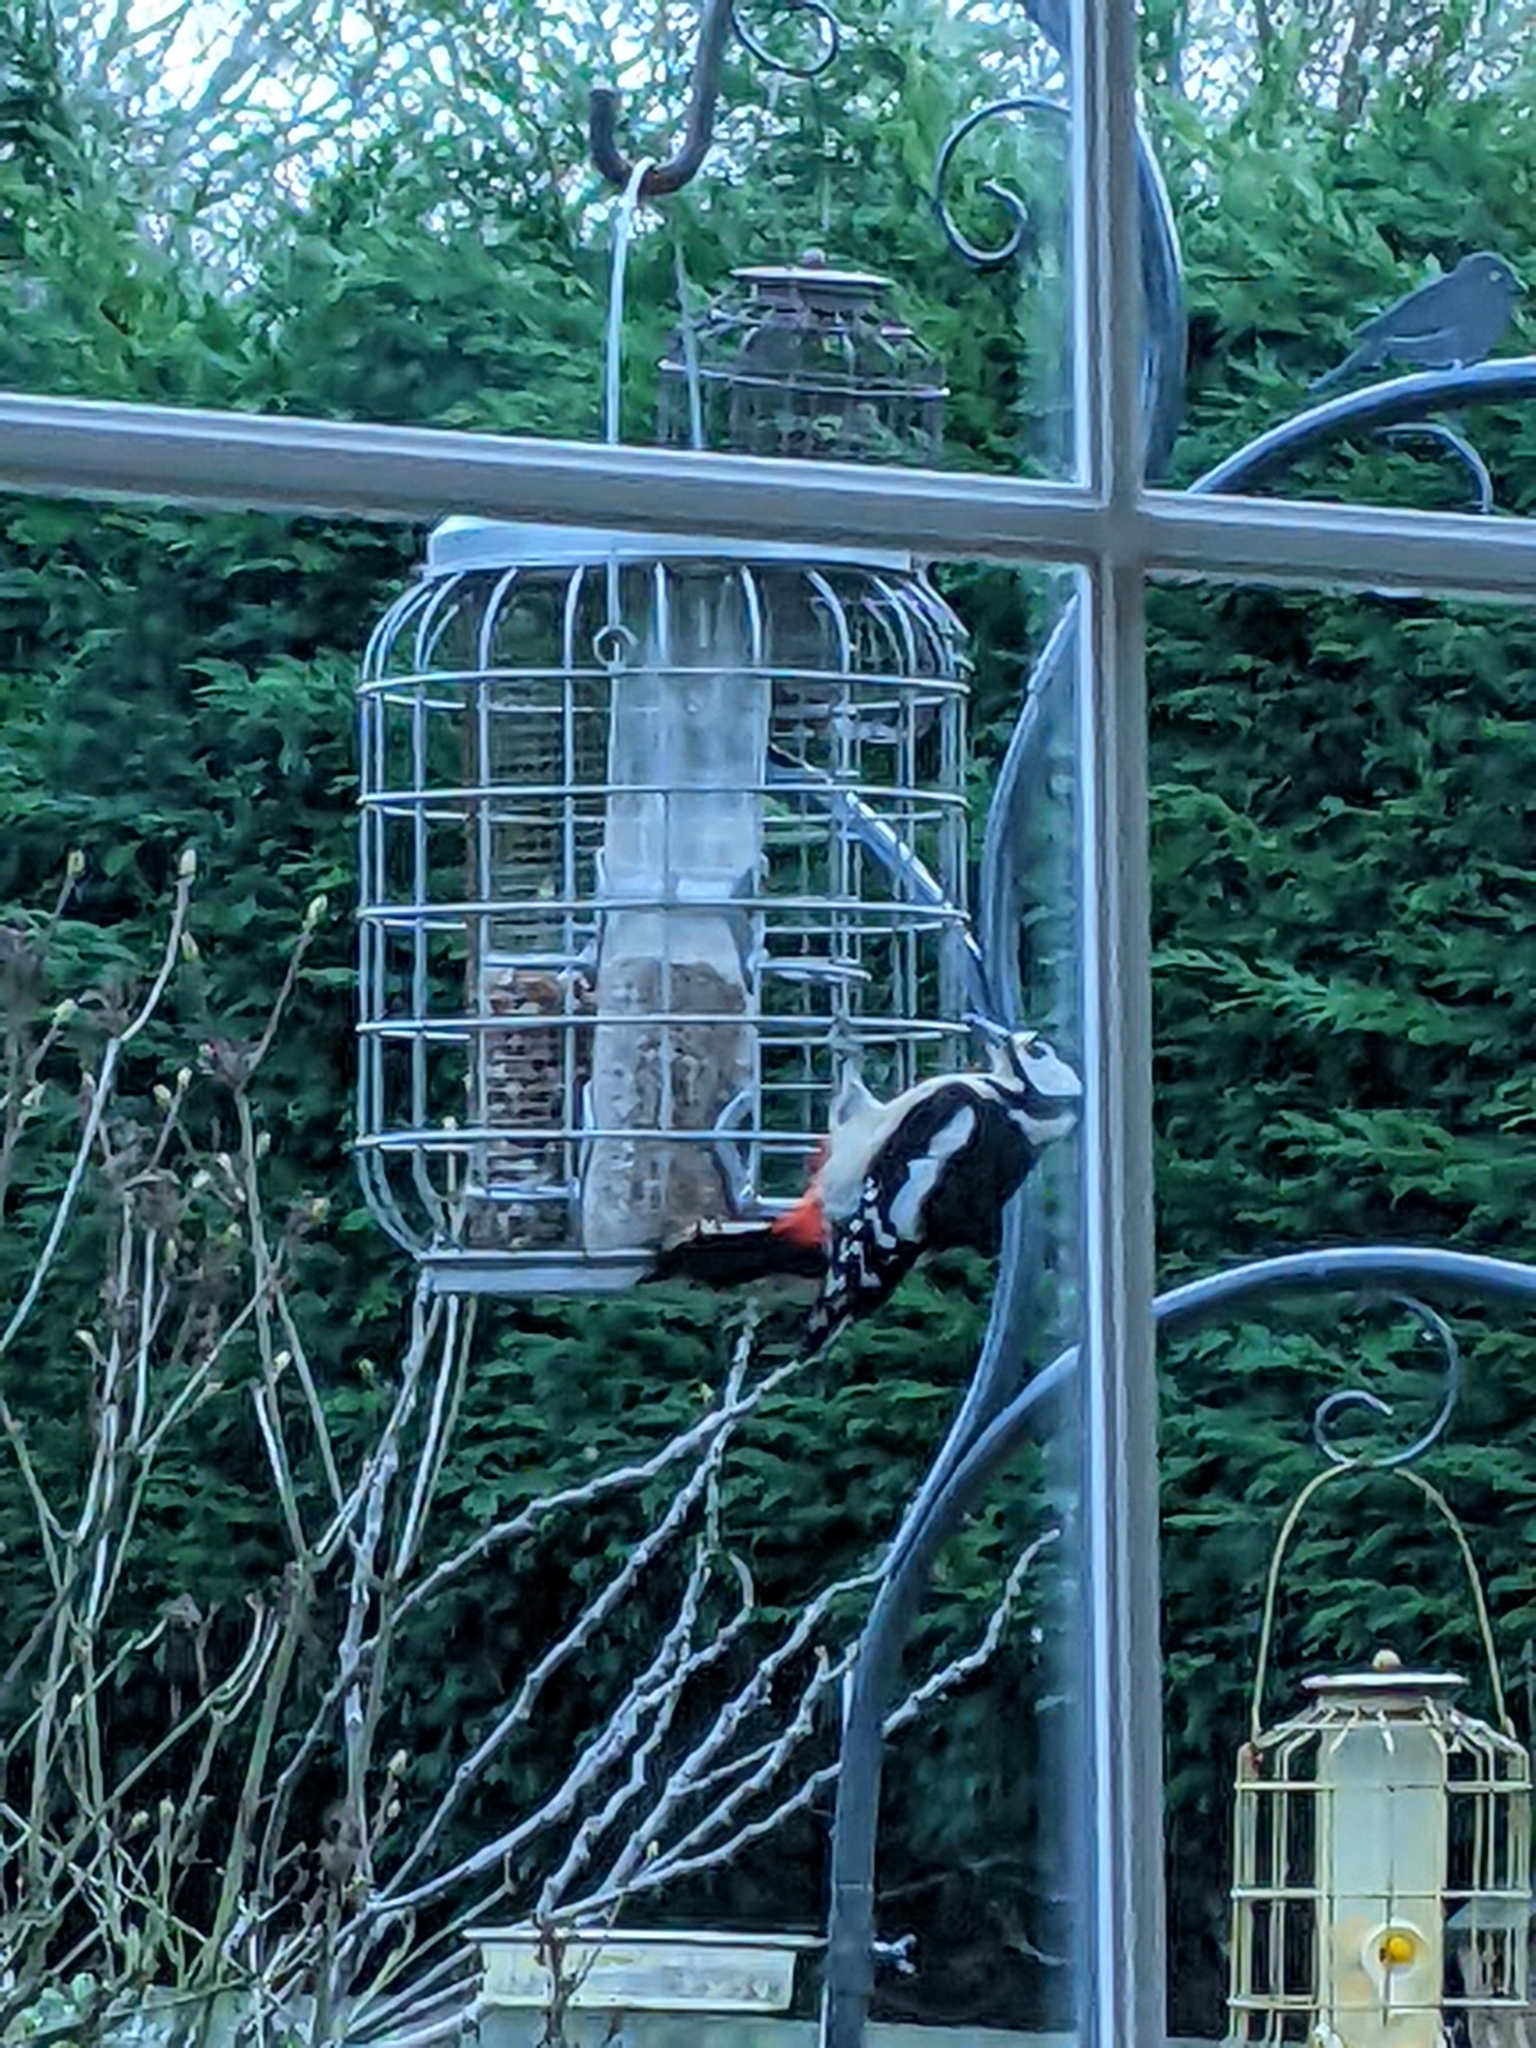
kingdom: Animalia
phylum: Chordata
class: Aves
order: Piciformes
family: Picidae
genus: Dendrocopos
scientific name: Dendrocopos major
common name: Great spotted woodpecker
